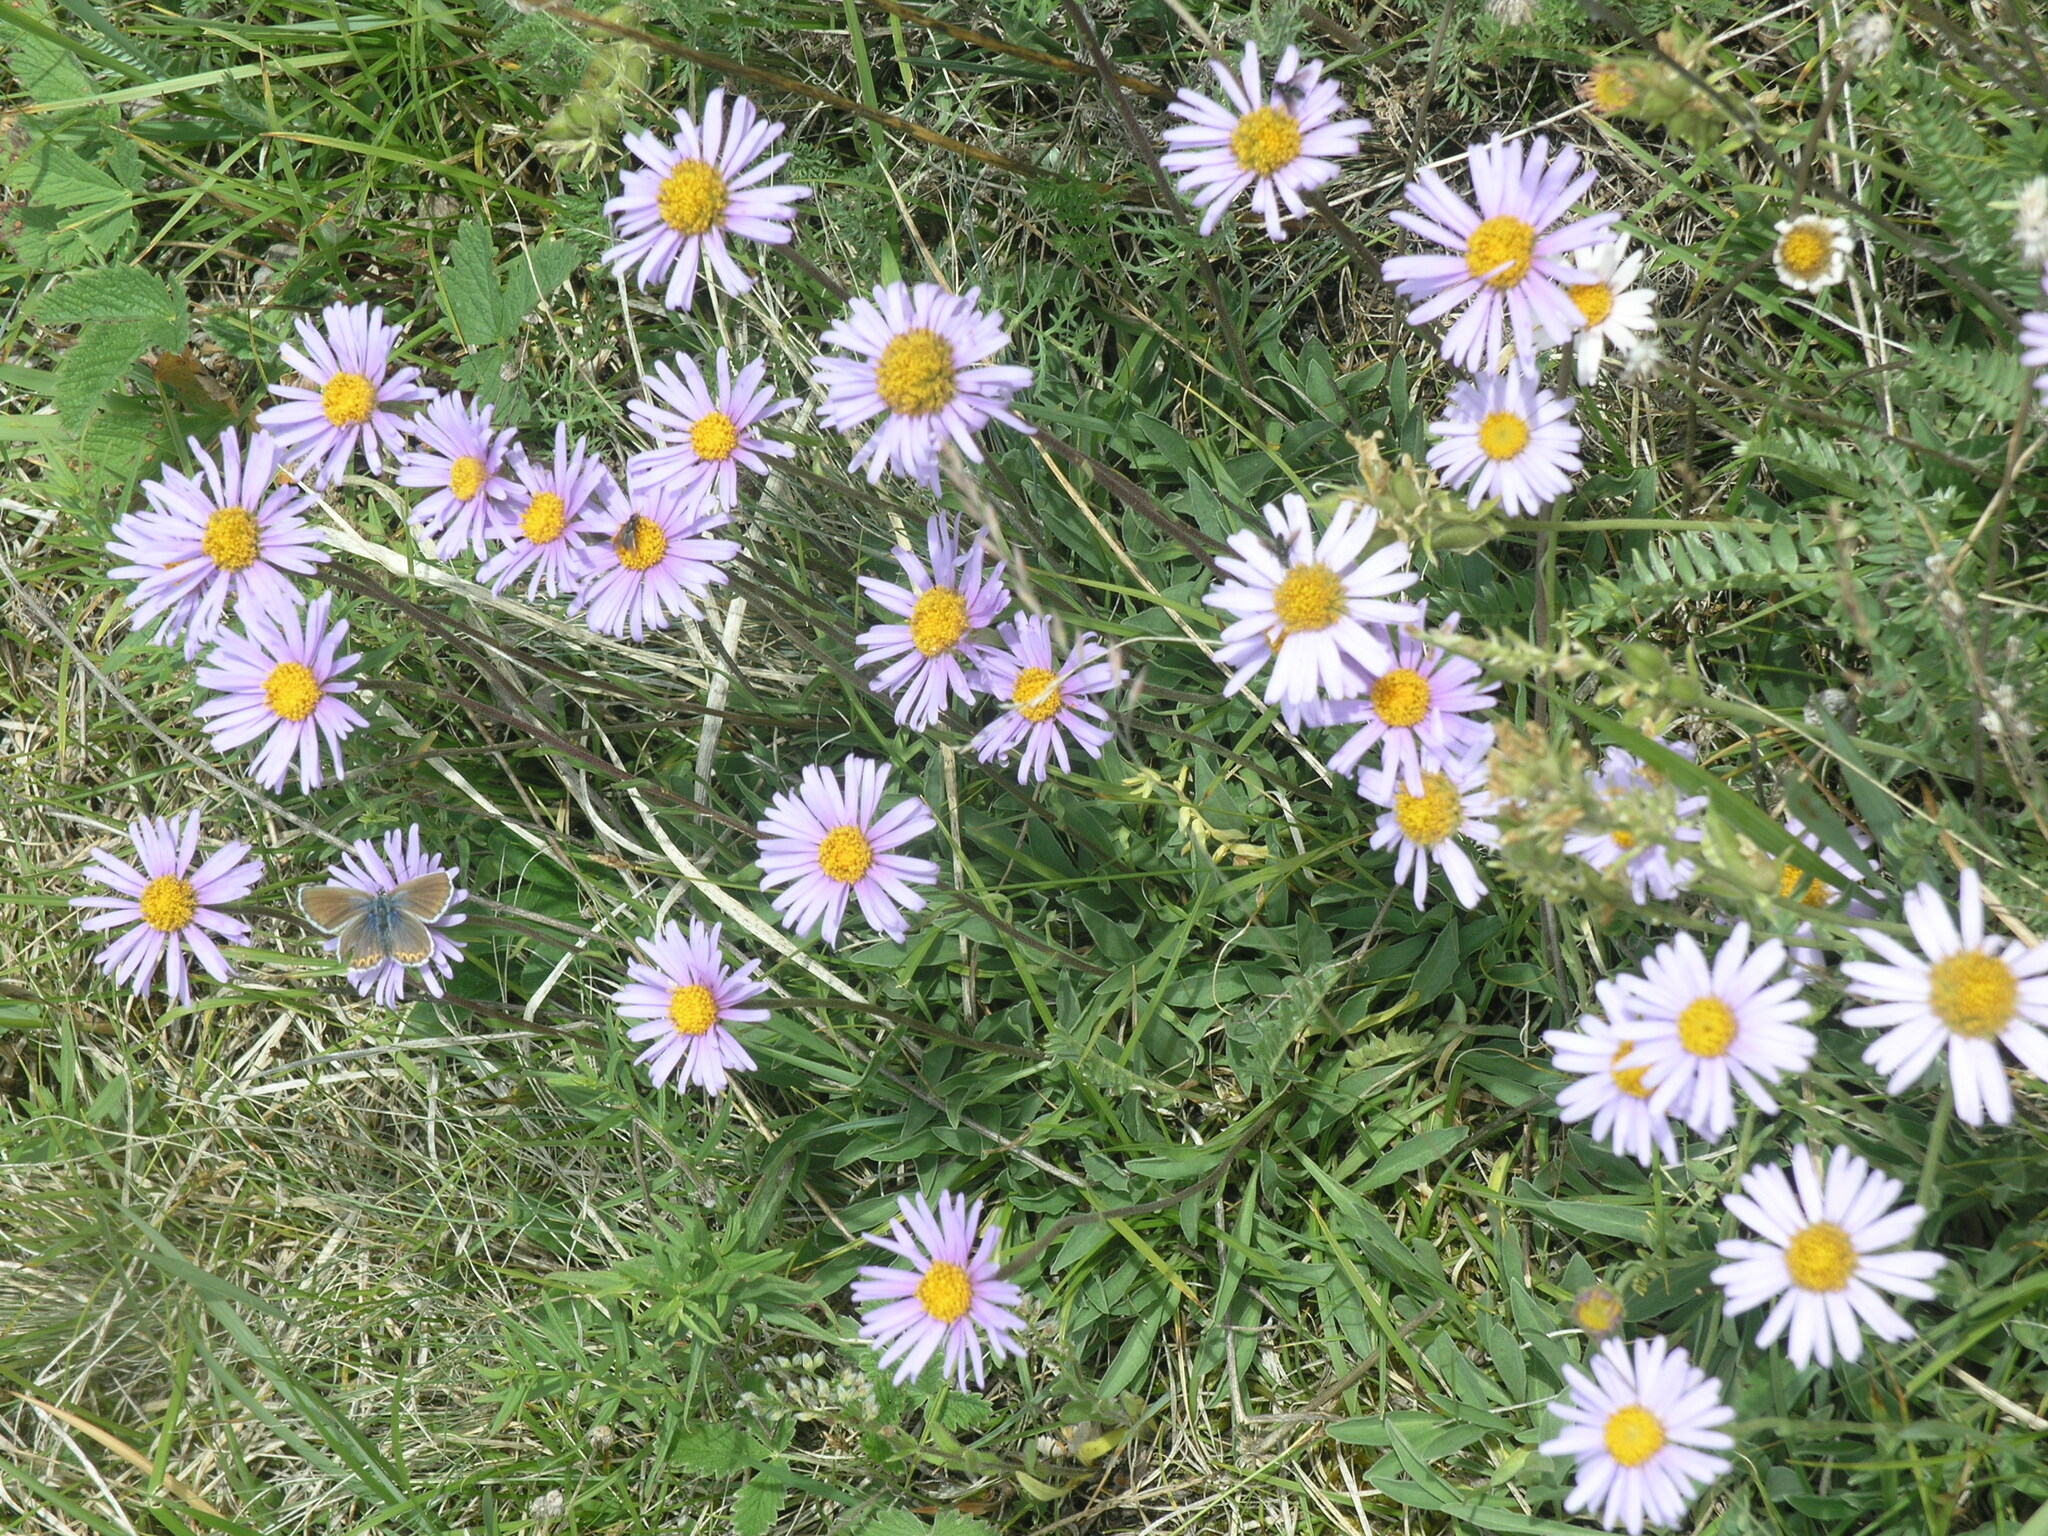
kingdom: Plantae
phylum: Tracheophyta
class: Magnoliopsida
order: Asterales
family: Asteraceae
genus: Aster
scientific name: Aster alpinus
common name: Alpine aster
